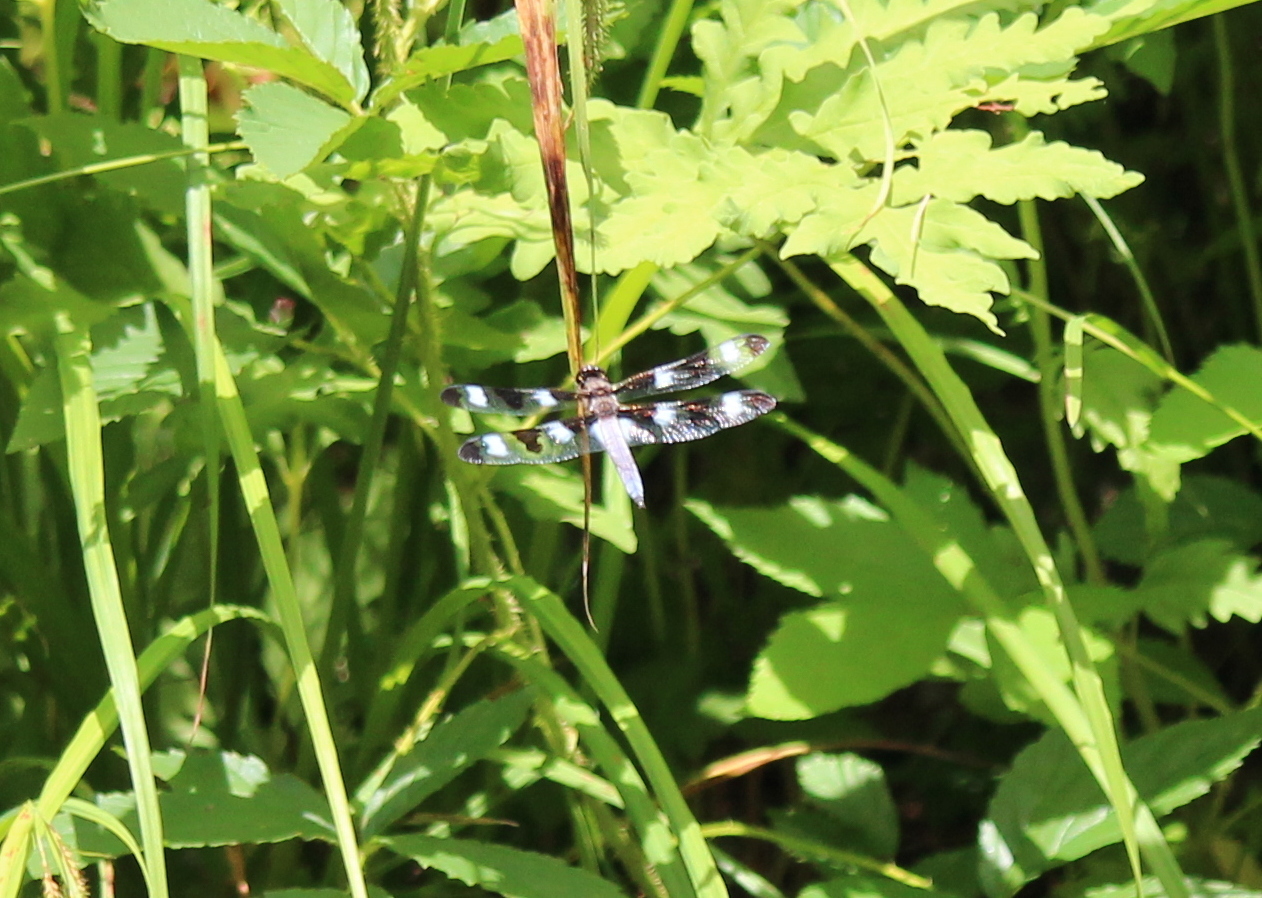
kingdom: Animalia
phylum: Arthropoda
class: Insecta
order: Odonata
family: Libellulidae
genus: Libellula
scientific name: Libellula pulchella
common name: Twelve-spotted skimmer
